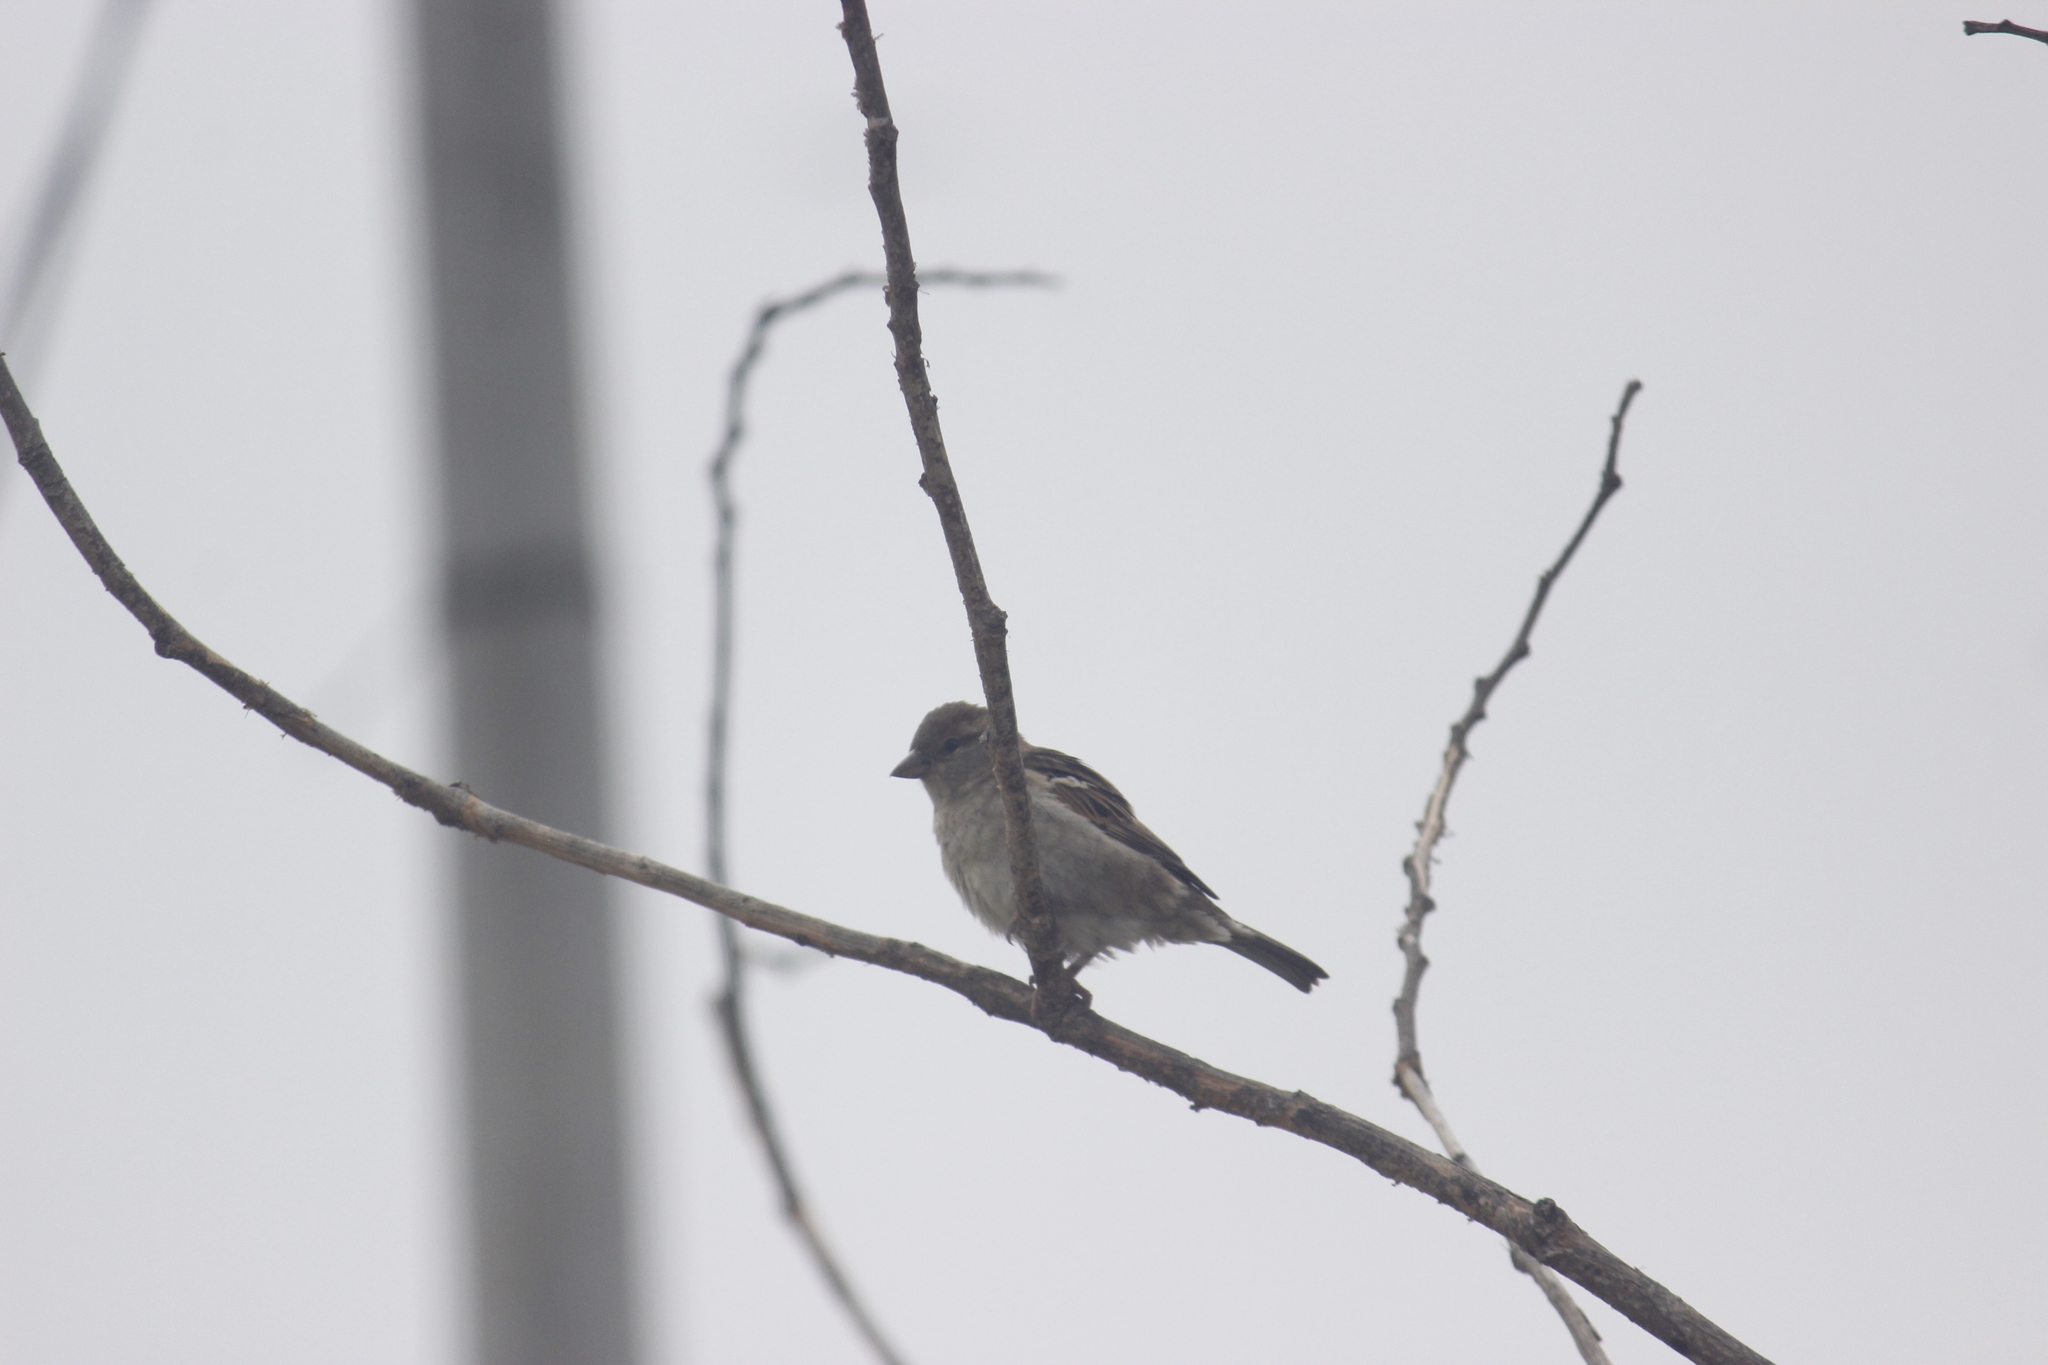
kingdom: Animalia
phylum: Chordata
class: Aves
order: Passeriformes
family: Passeridae
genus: Passer
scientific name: Passer domesticus
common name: House sparrow
